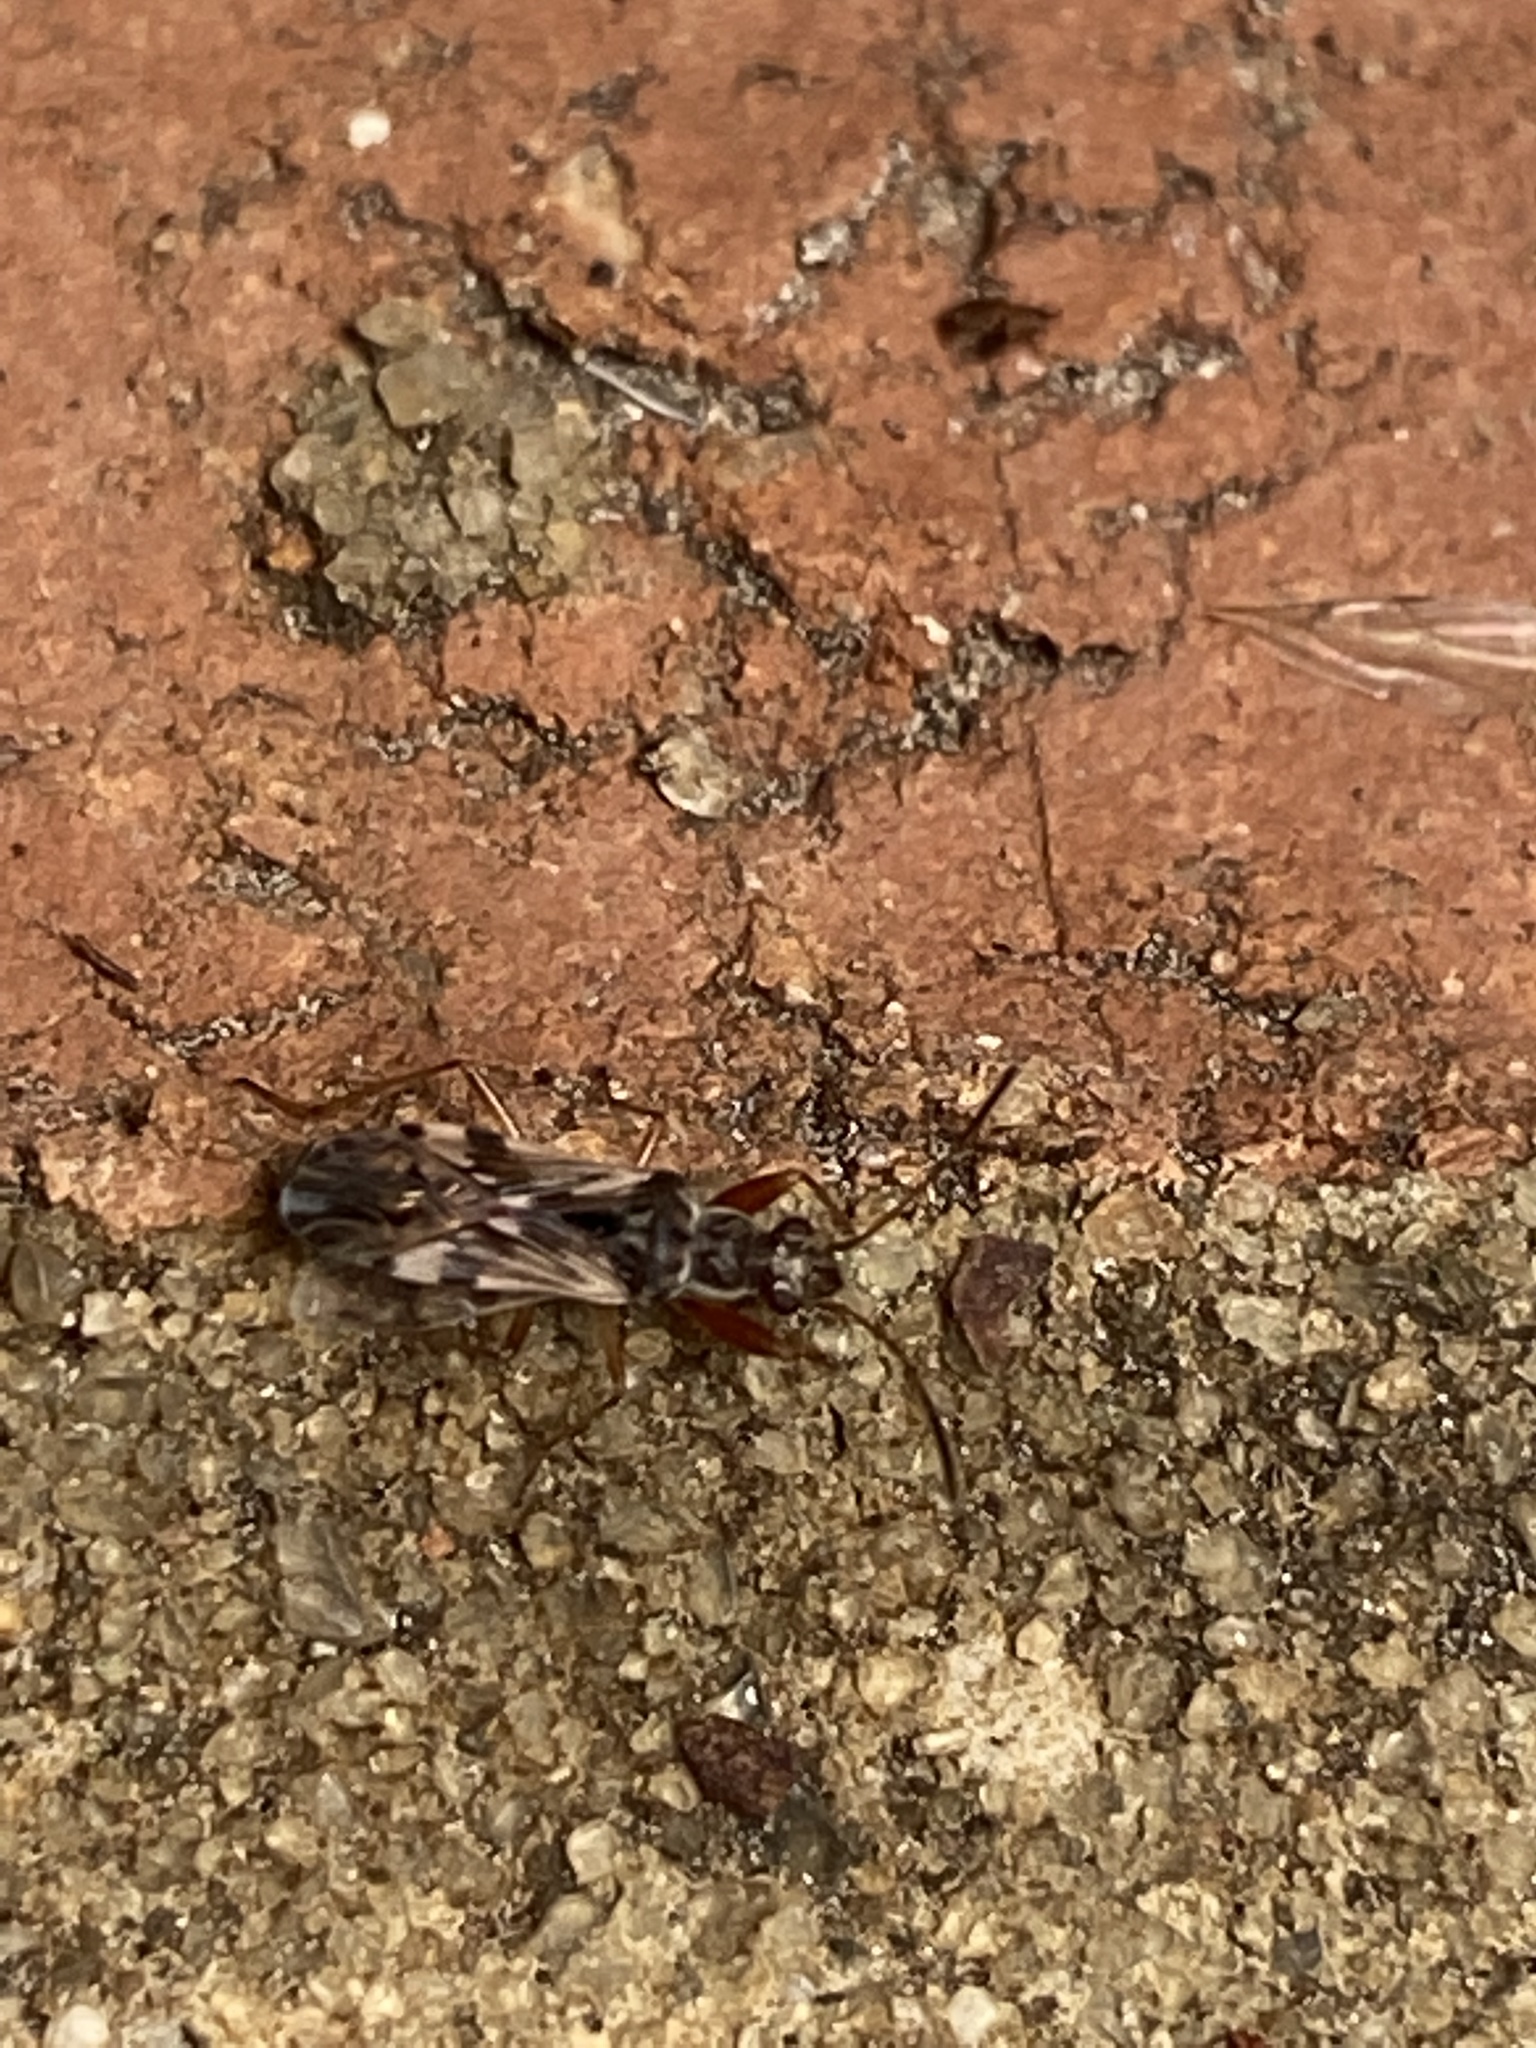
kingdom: Animalia
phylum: Arthropoda
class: Insecta
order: Hemiptera
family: Rhyparochromidae
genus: Neopamera
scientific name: Neopamera bilobata
